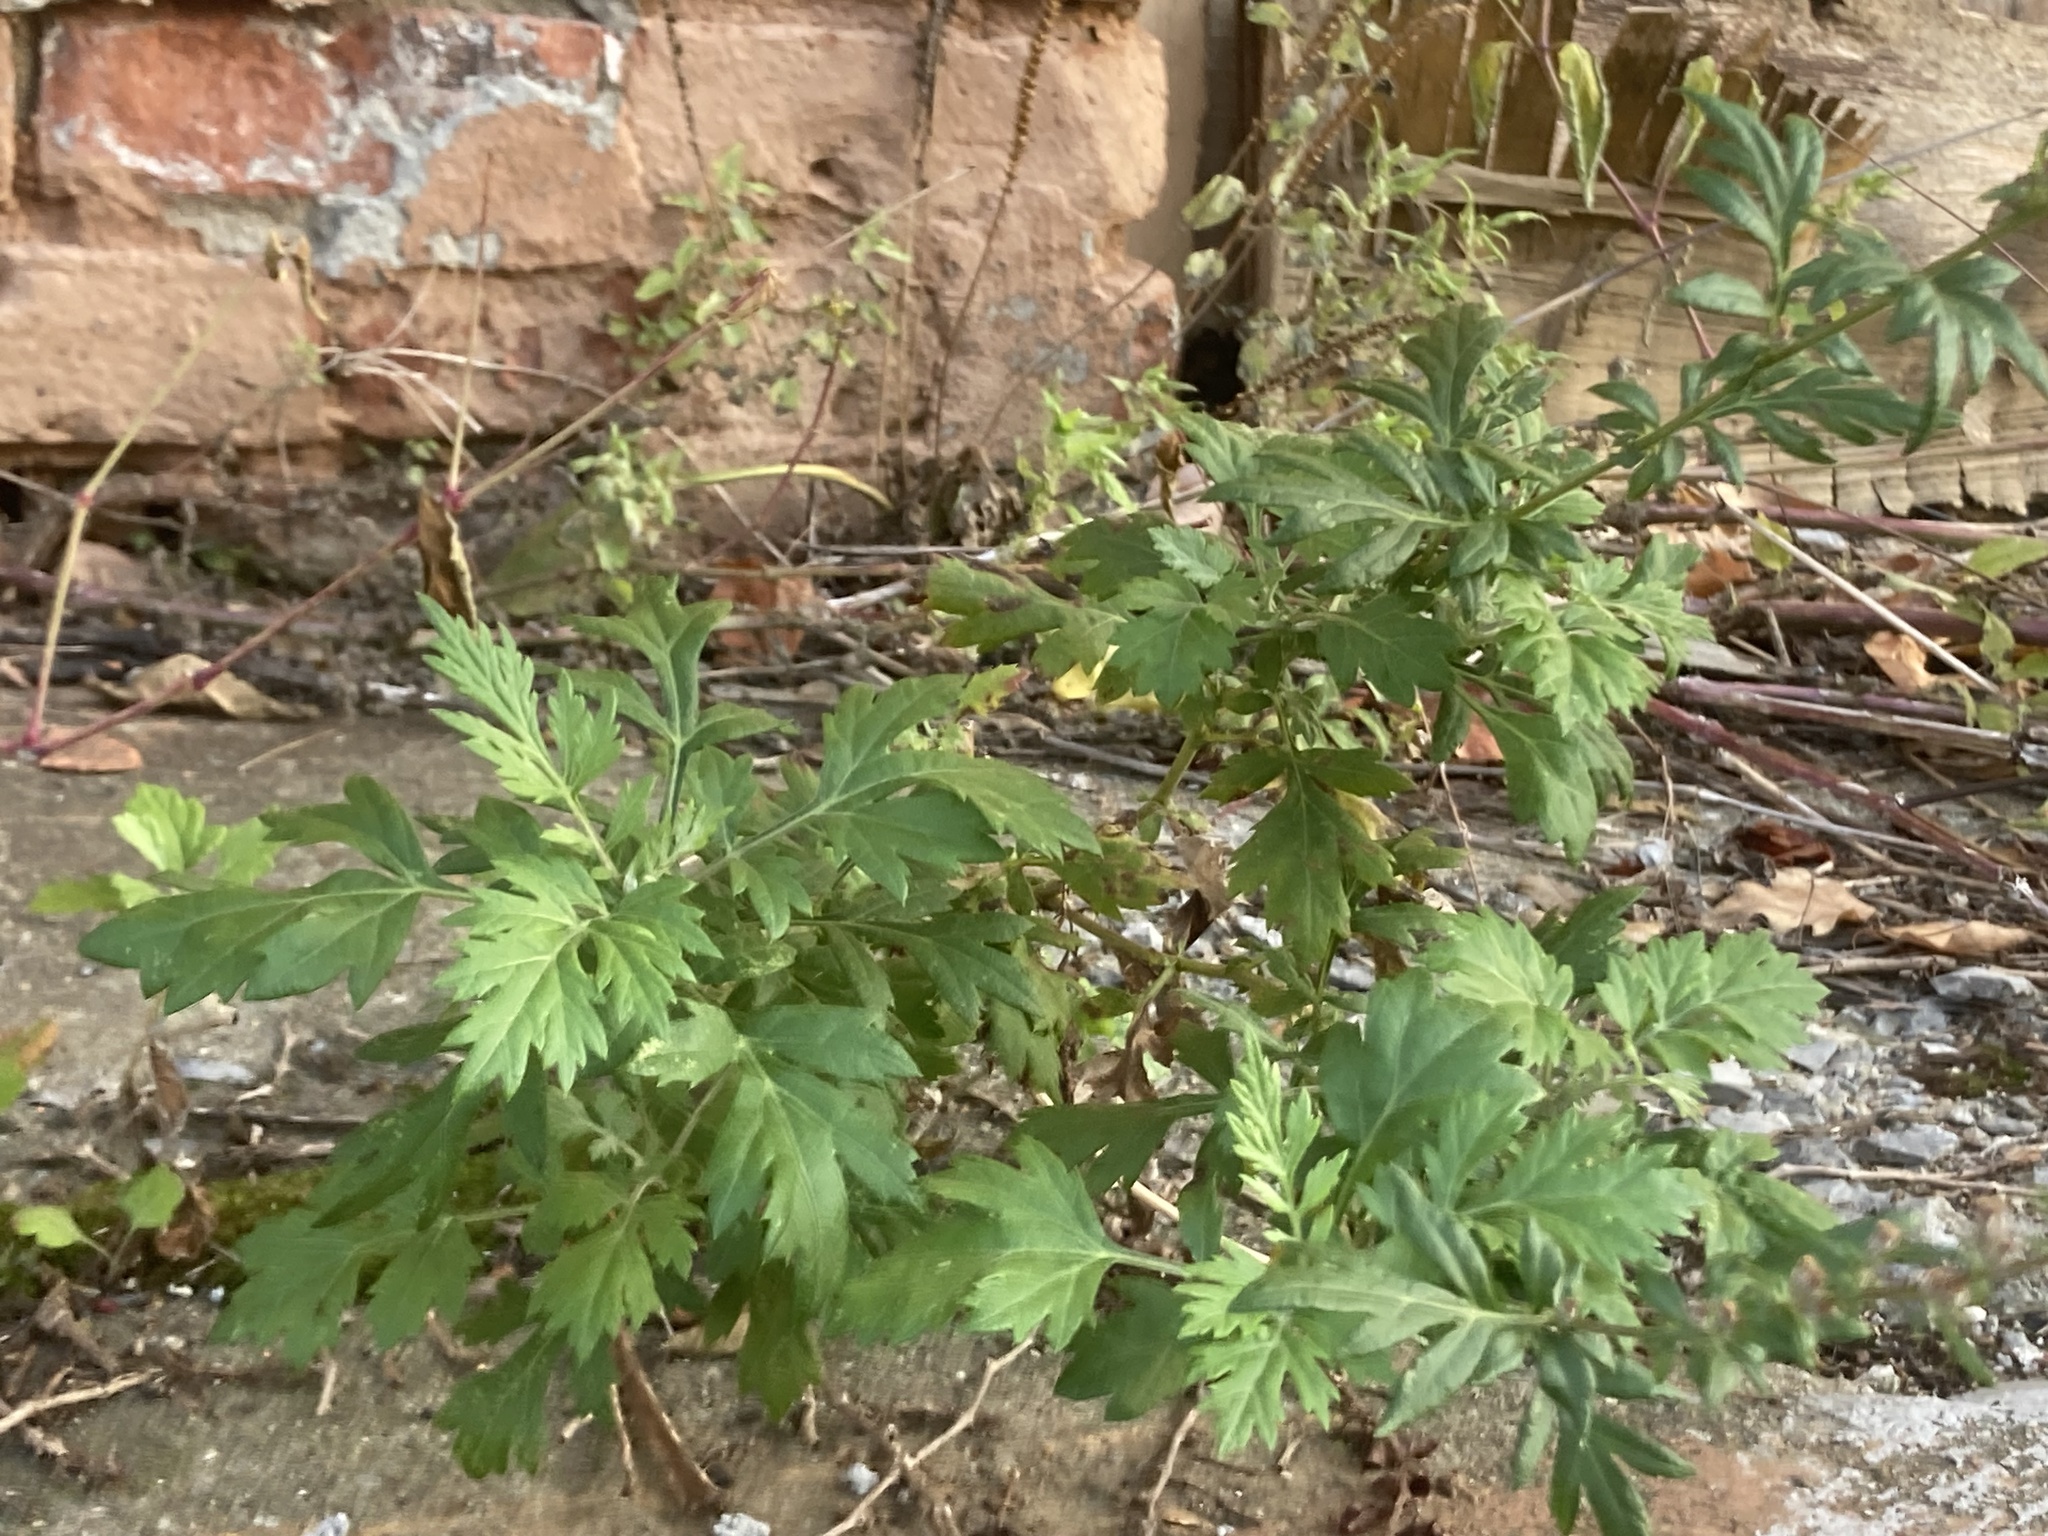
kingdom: Plantae
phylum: Tracheophyta
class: Magnoliopsida
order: Asterales
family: Asteraceae
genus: Artemisia
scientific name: Artemisia vulgaris
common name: Mugwort
